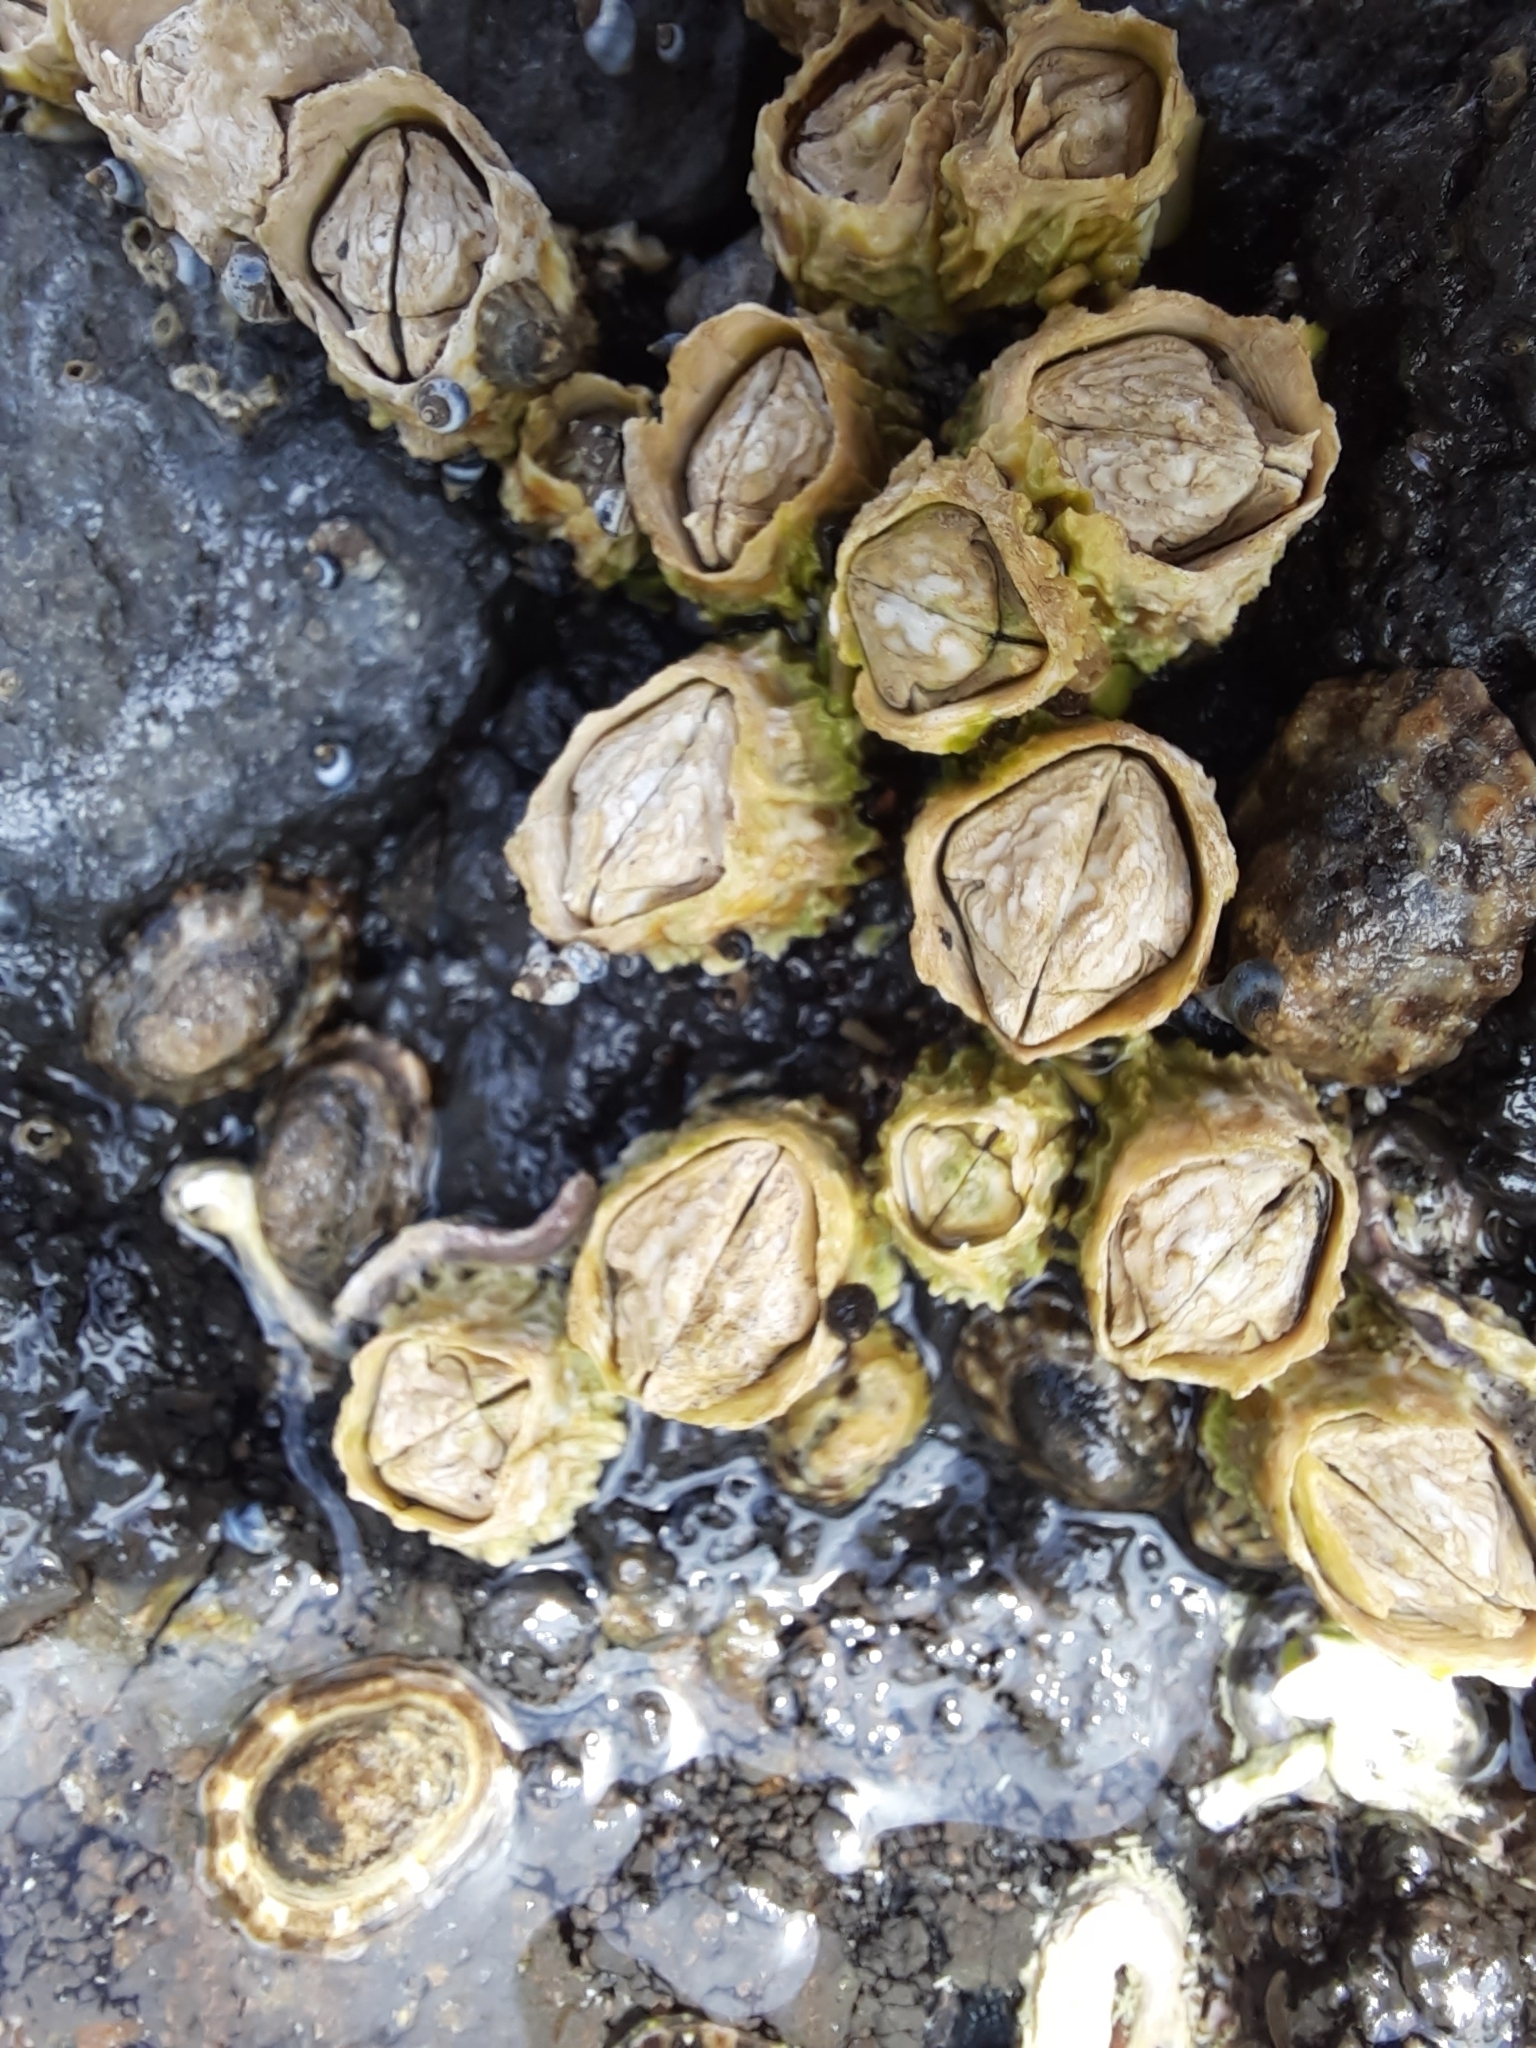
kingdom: Animalia
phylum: Arthropoda
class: Maxillopoda
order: Sessilia
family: Tetraclitidae
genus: Epopella
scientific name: Epopella plicata
